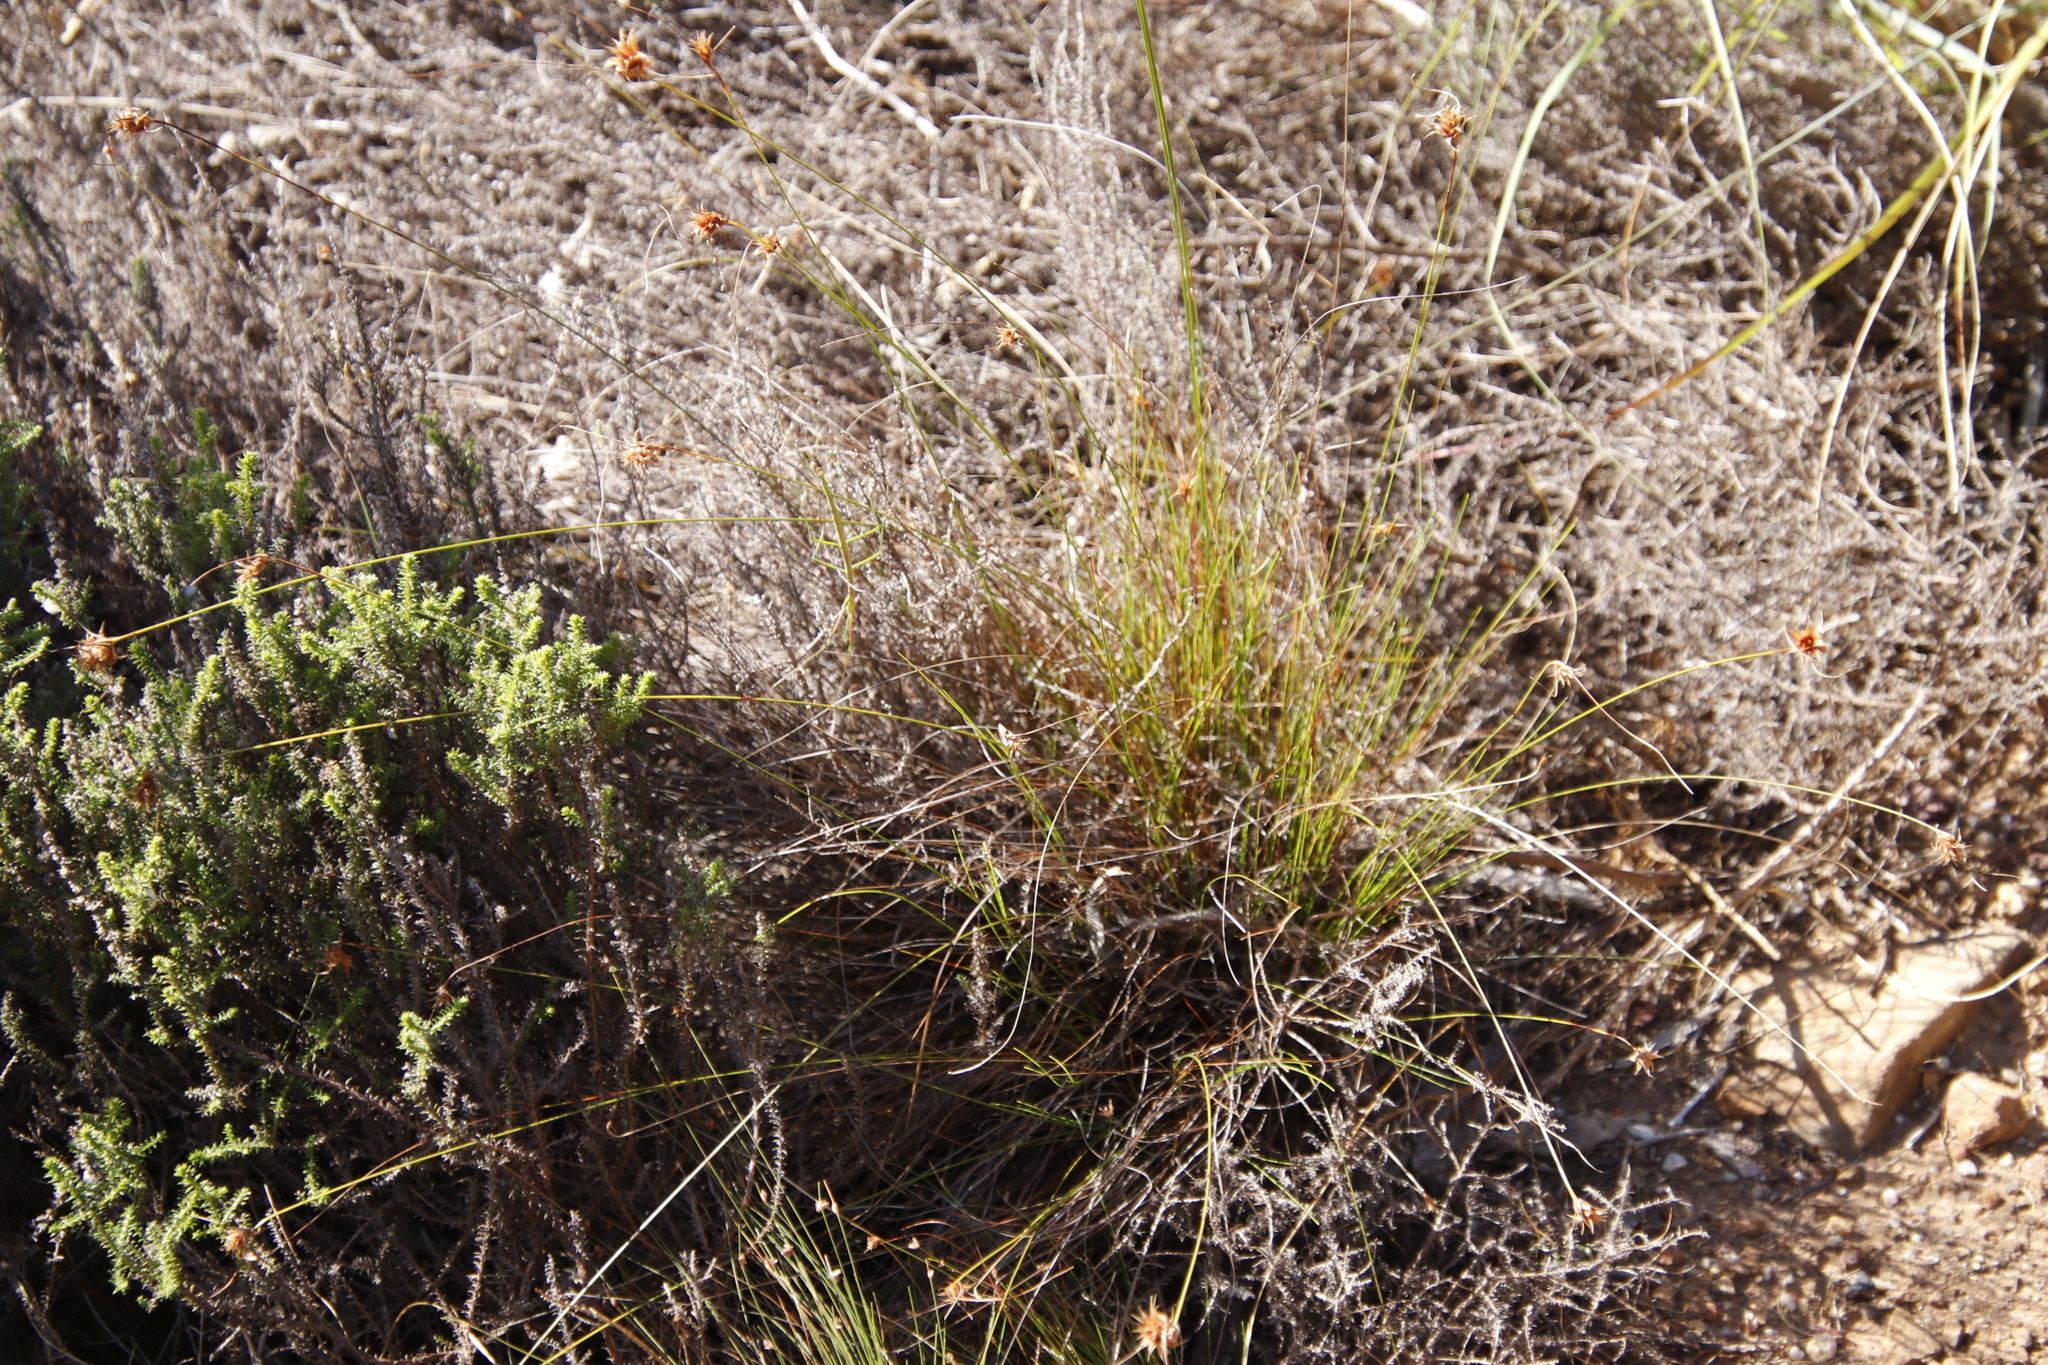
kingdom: Plantae
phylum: Tracheophyta
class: Liliopsida
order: Poales
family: Cyperaceae
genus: Ficinia
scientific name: Ficinia nigrescens
